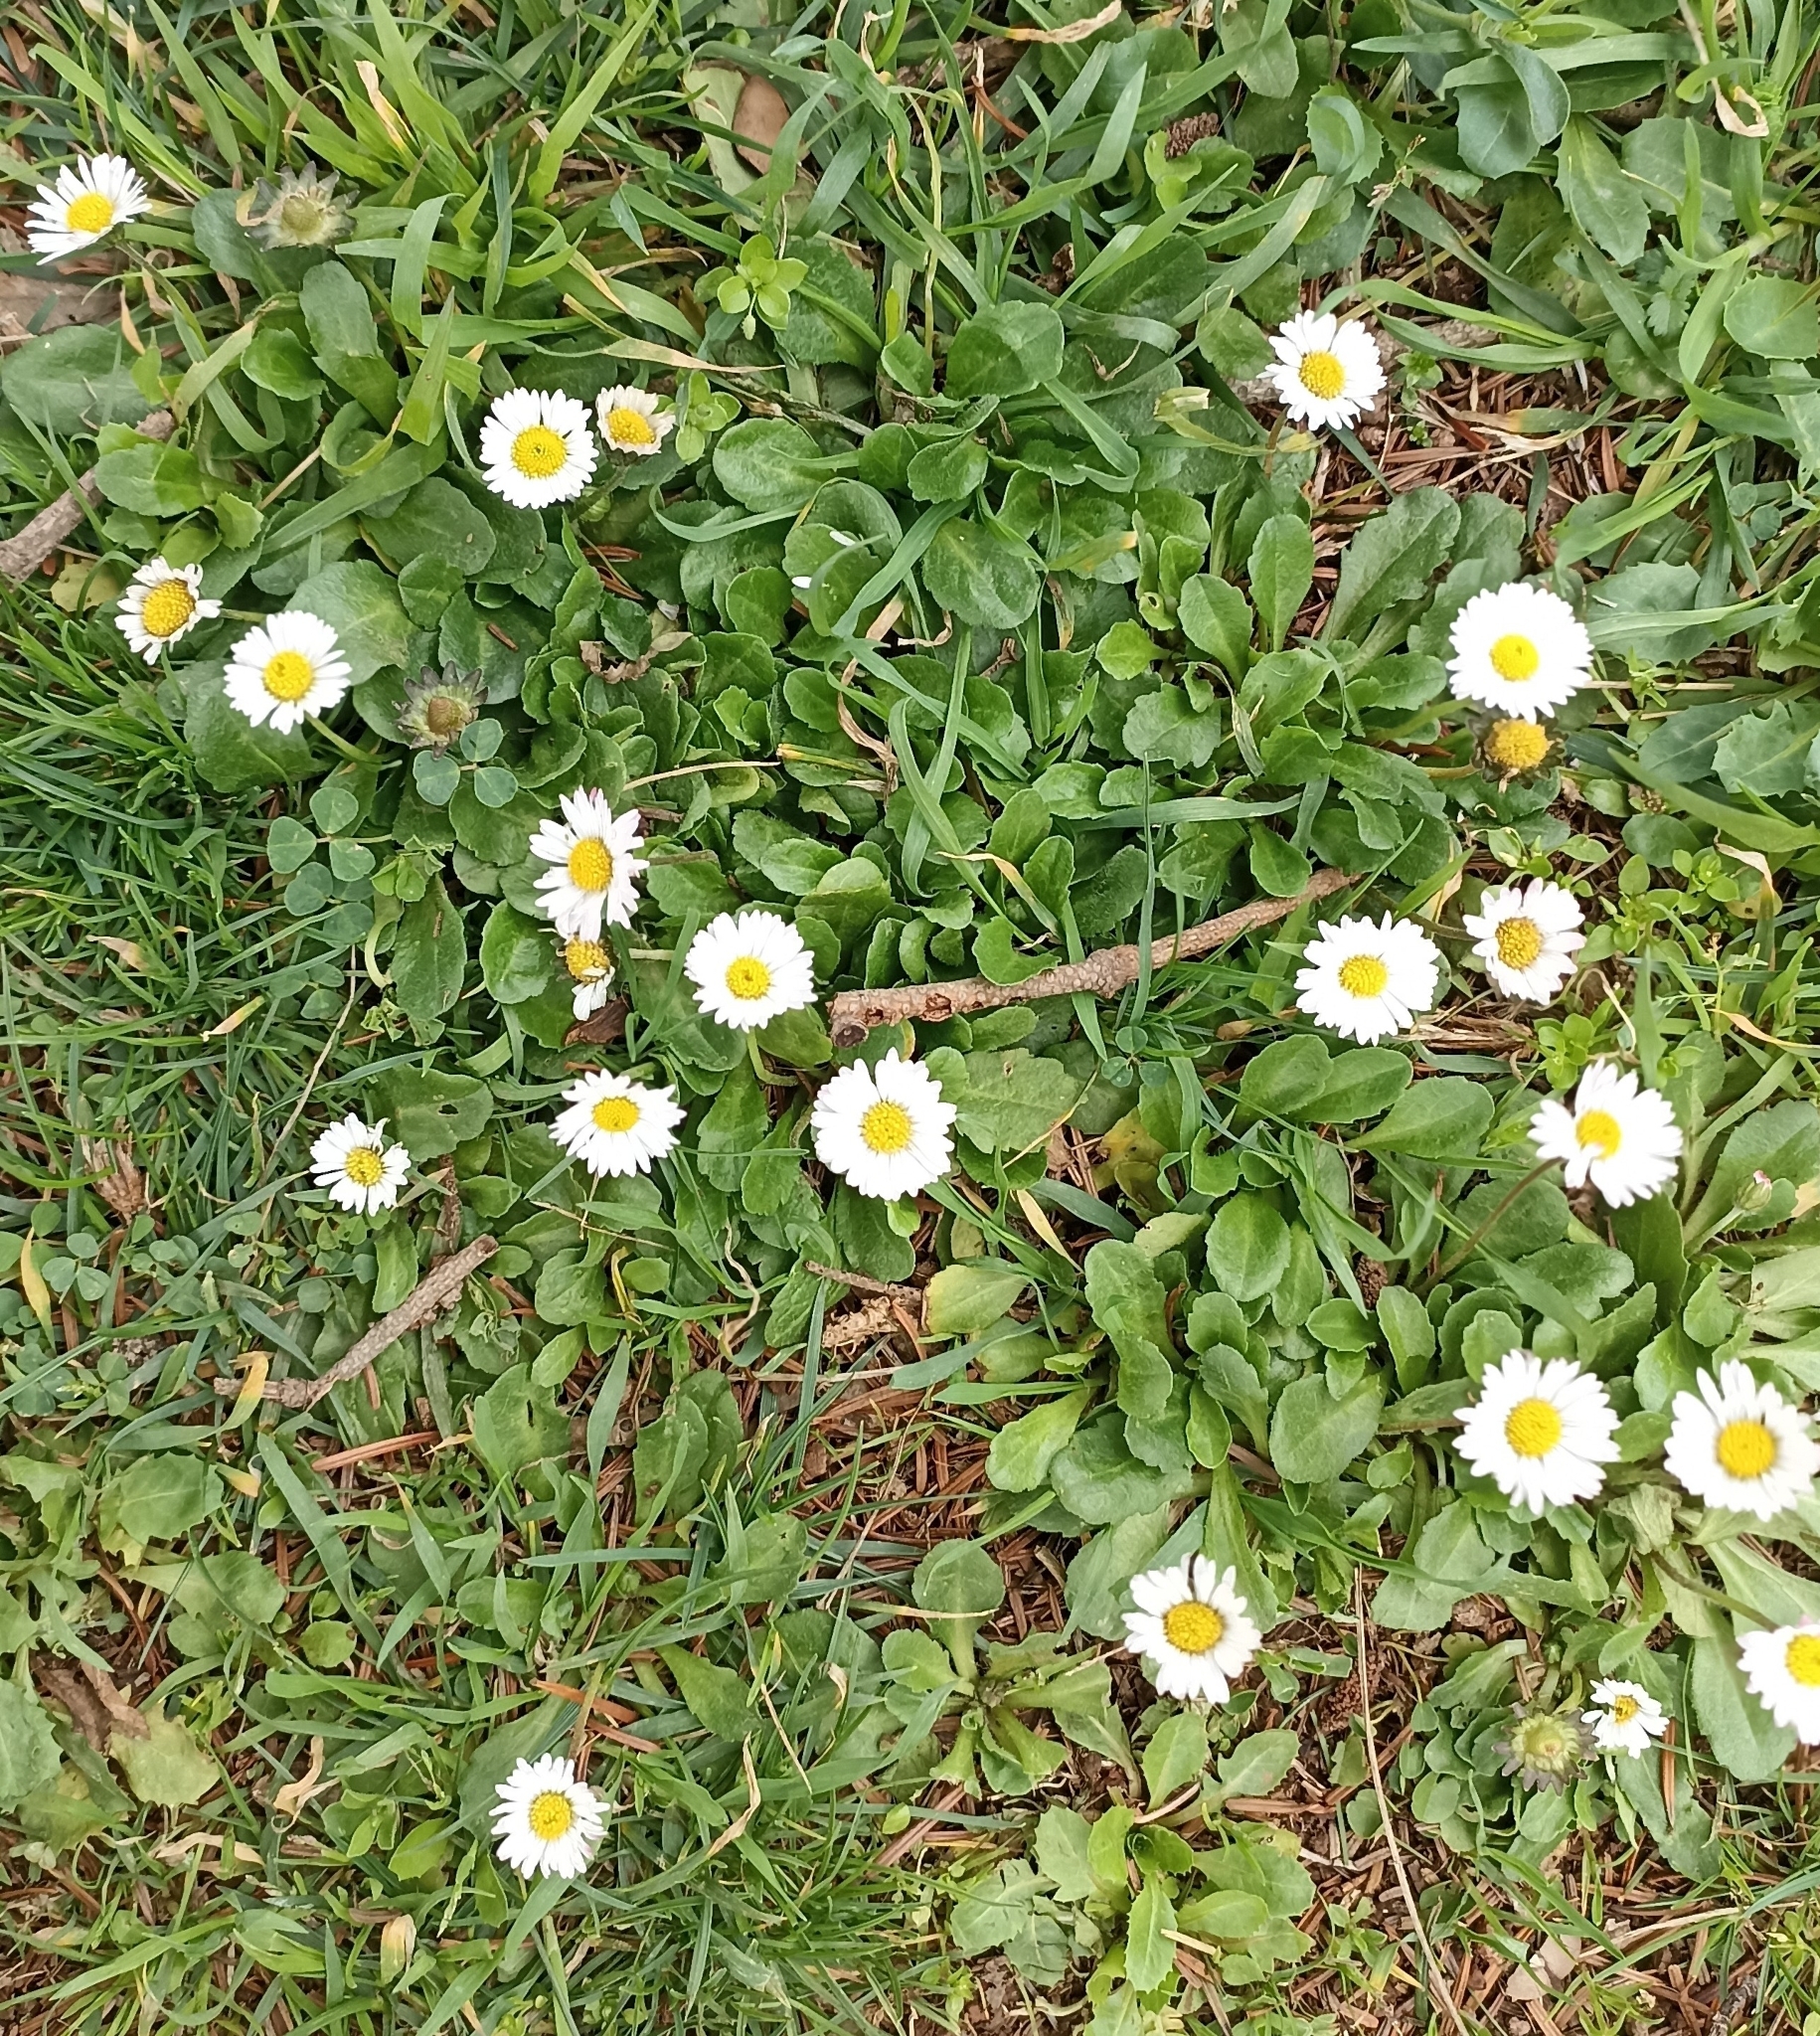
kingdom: Plantae
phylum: Tracheophyta
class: Magnoliopsida
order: Asterales
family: Asteraceae
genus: Bellis
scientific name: Bellis perennis
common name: Lawndaisy
